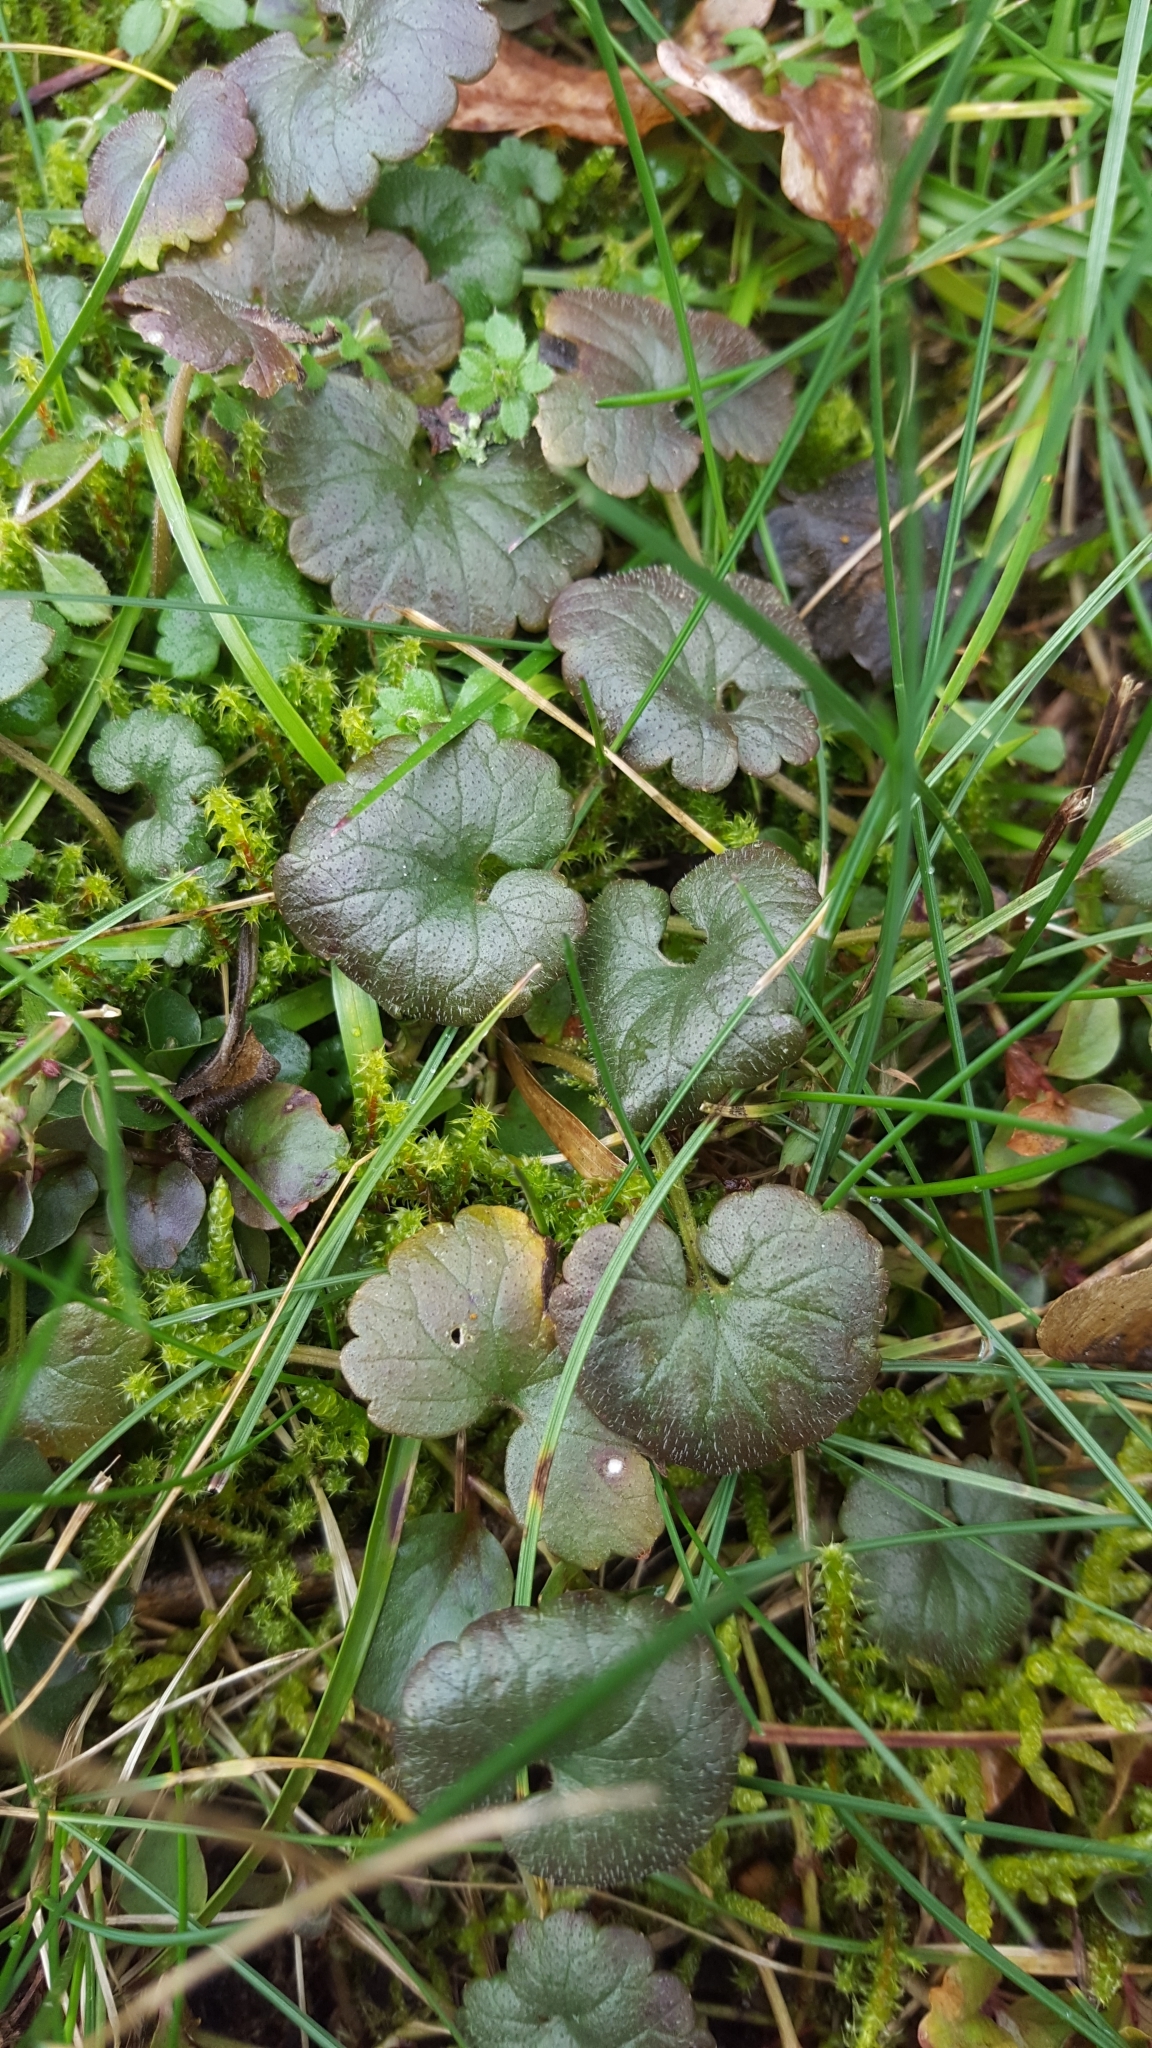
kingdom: Plantae
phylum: Tracheophyta
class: Magnoliopsida
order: Lamiales
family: Lamiaceae
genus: Glechoma
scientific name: Glechoma hederacea
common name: Ground ivy
